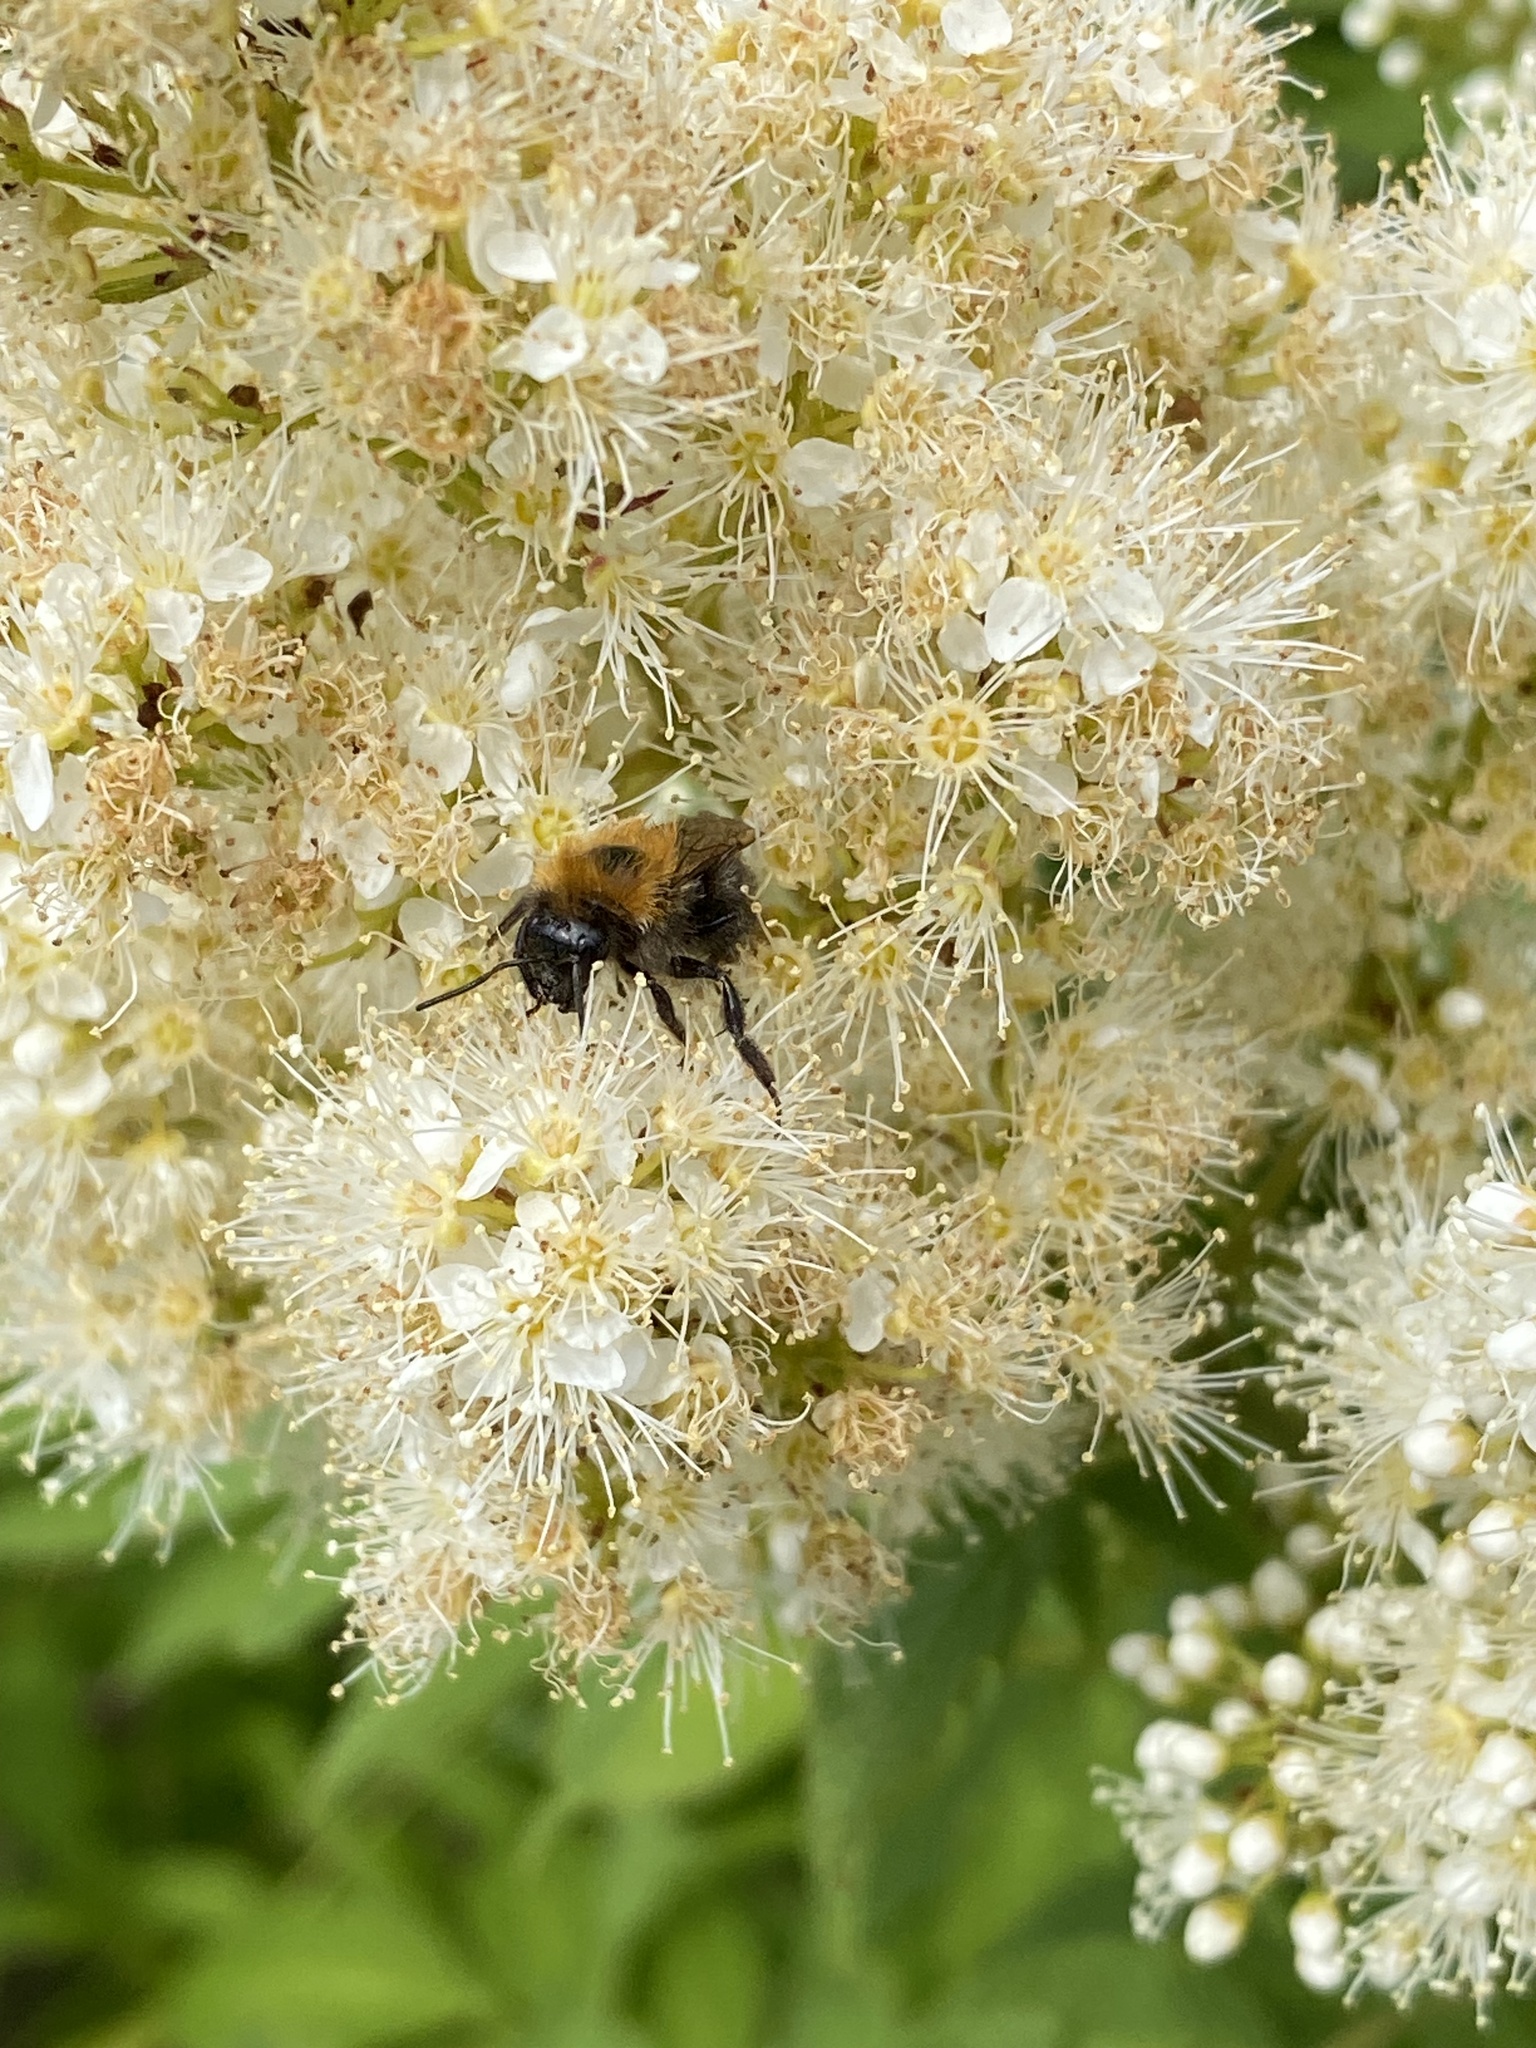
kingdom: Animalia
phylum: Arthropoda
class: Insecta
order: Hymenoptera
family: Apidae
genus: Bombus
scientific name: Bombus hypnorum
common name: New garden bumblebee
